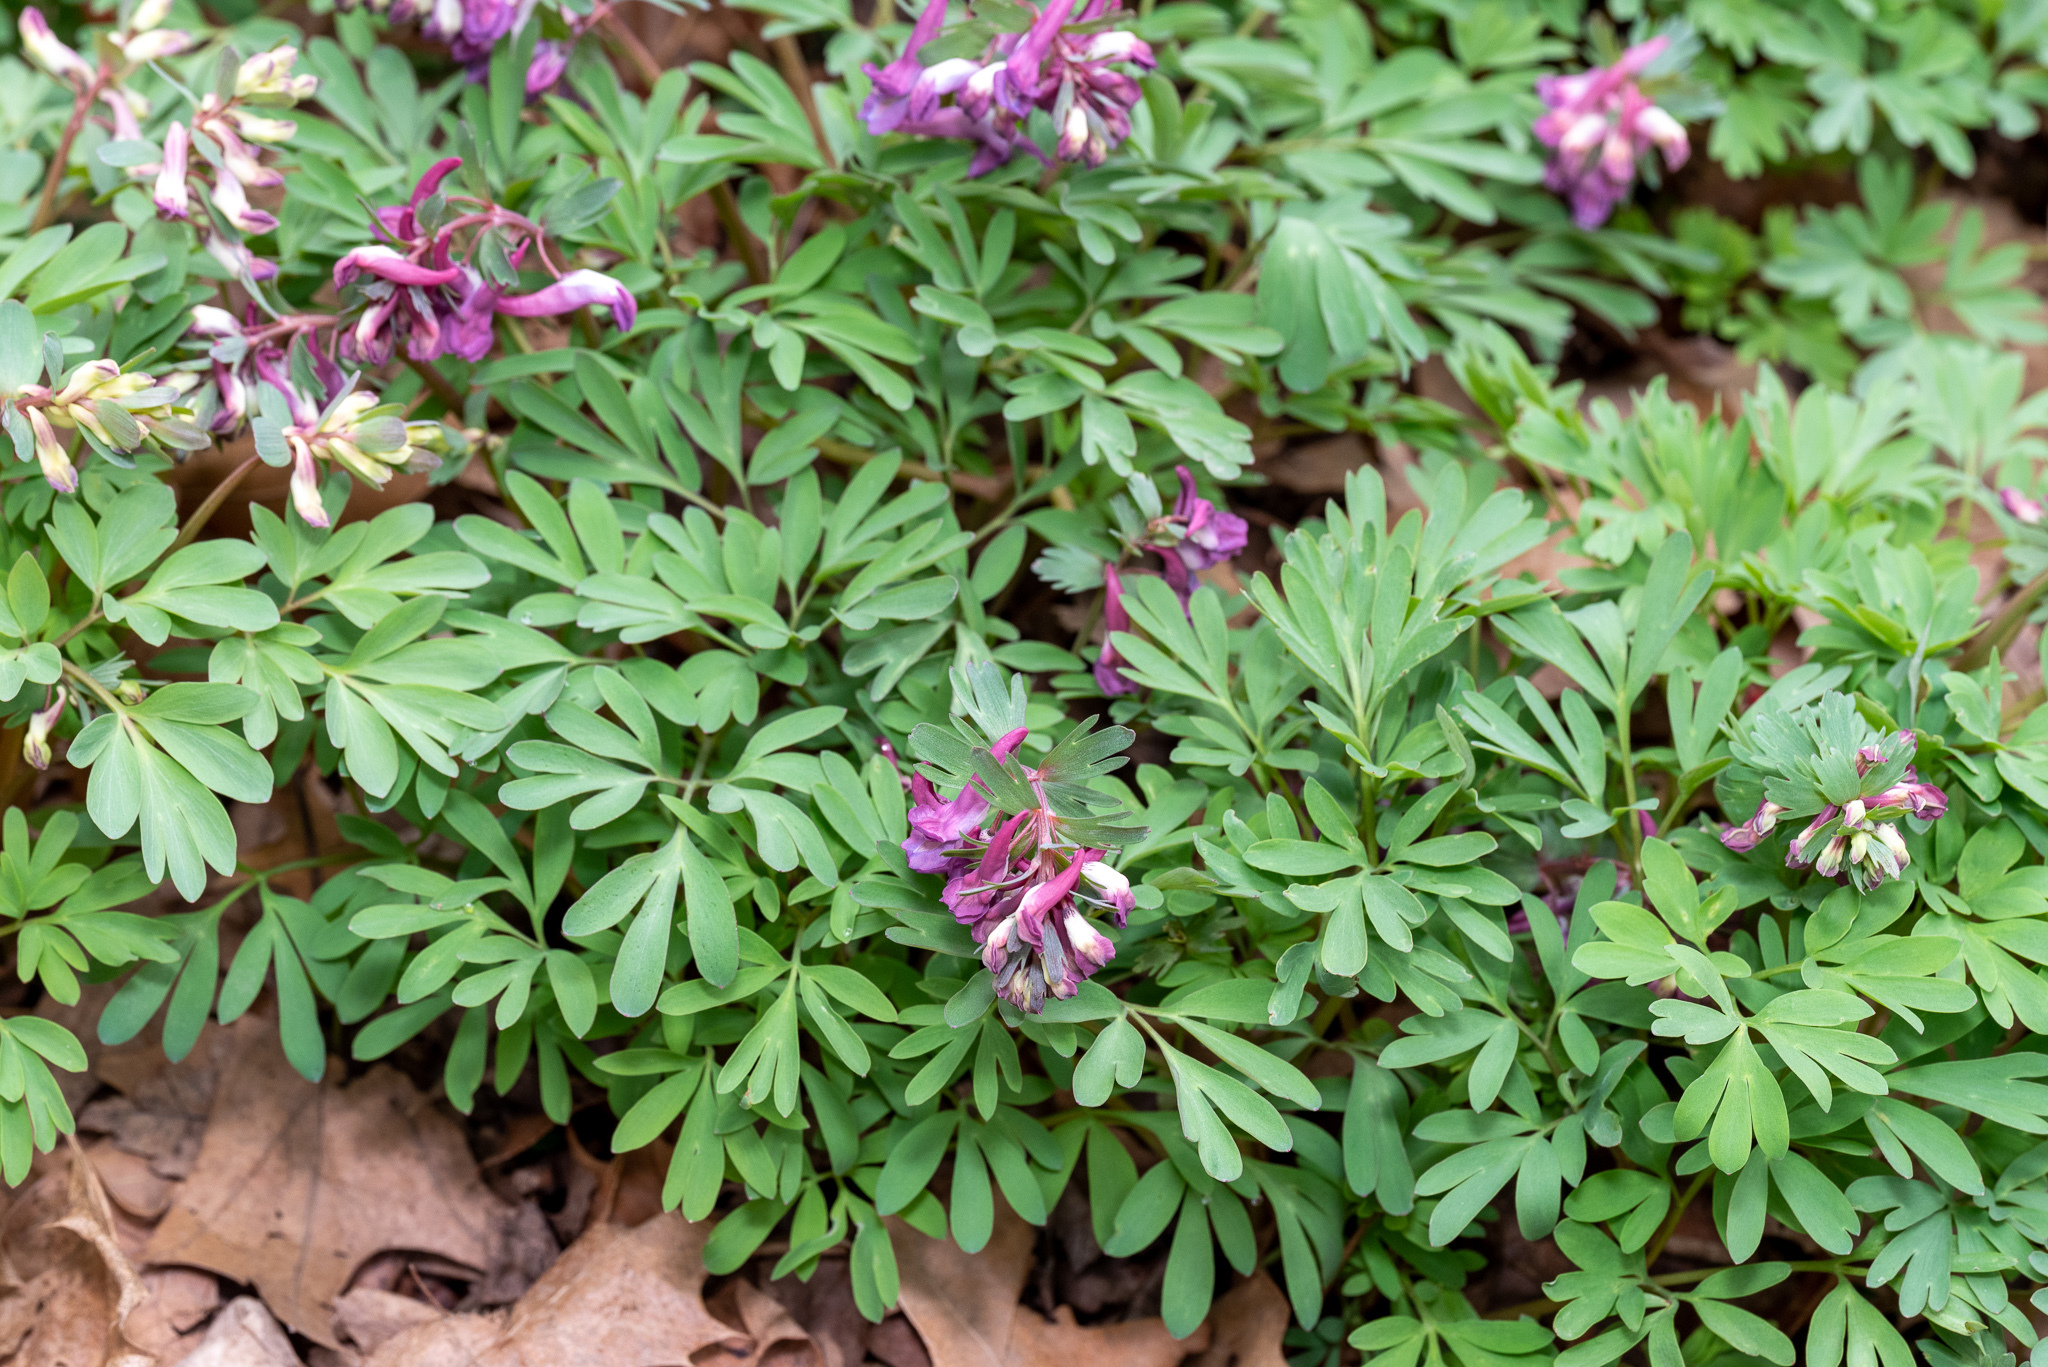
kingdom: Plantae
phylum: Tracheophyta
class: Magnoliopsida
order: Ranunculales
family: Papaveraceae
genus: Corydalis
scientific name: Corydalis solida
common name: Bird-in-a-bush
